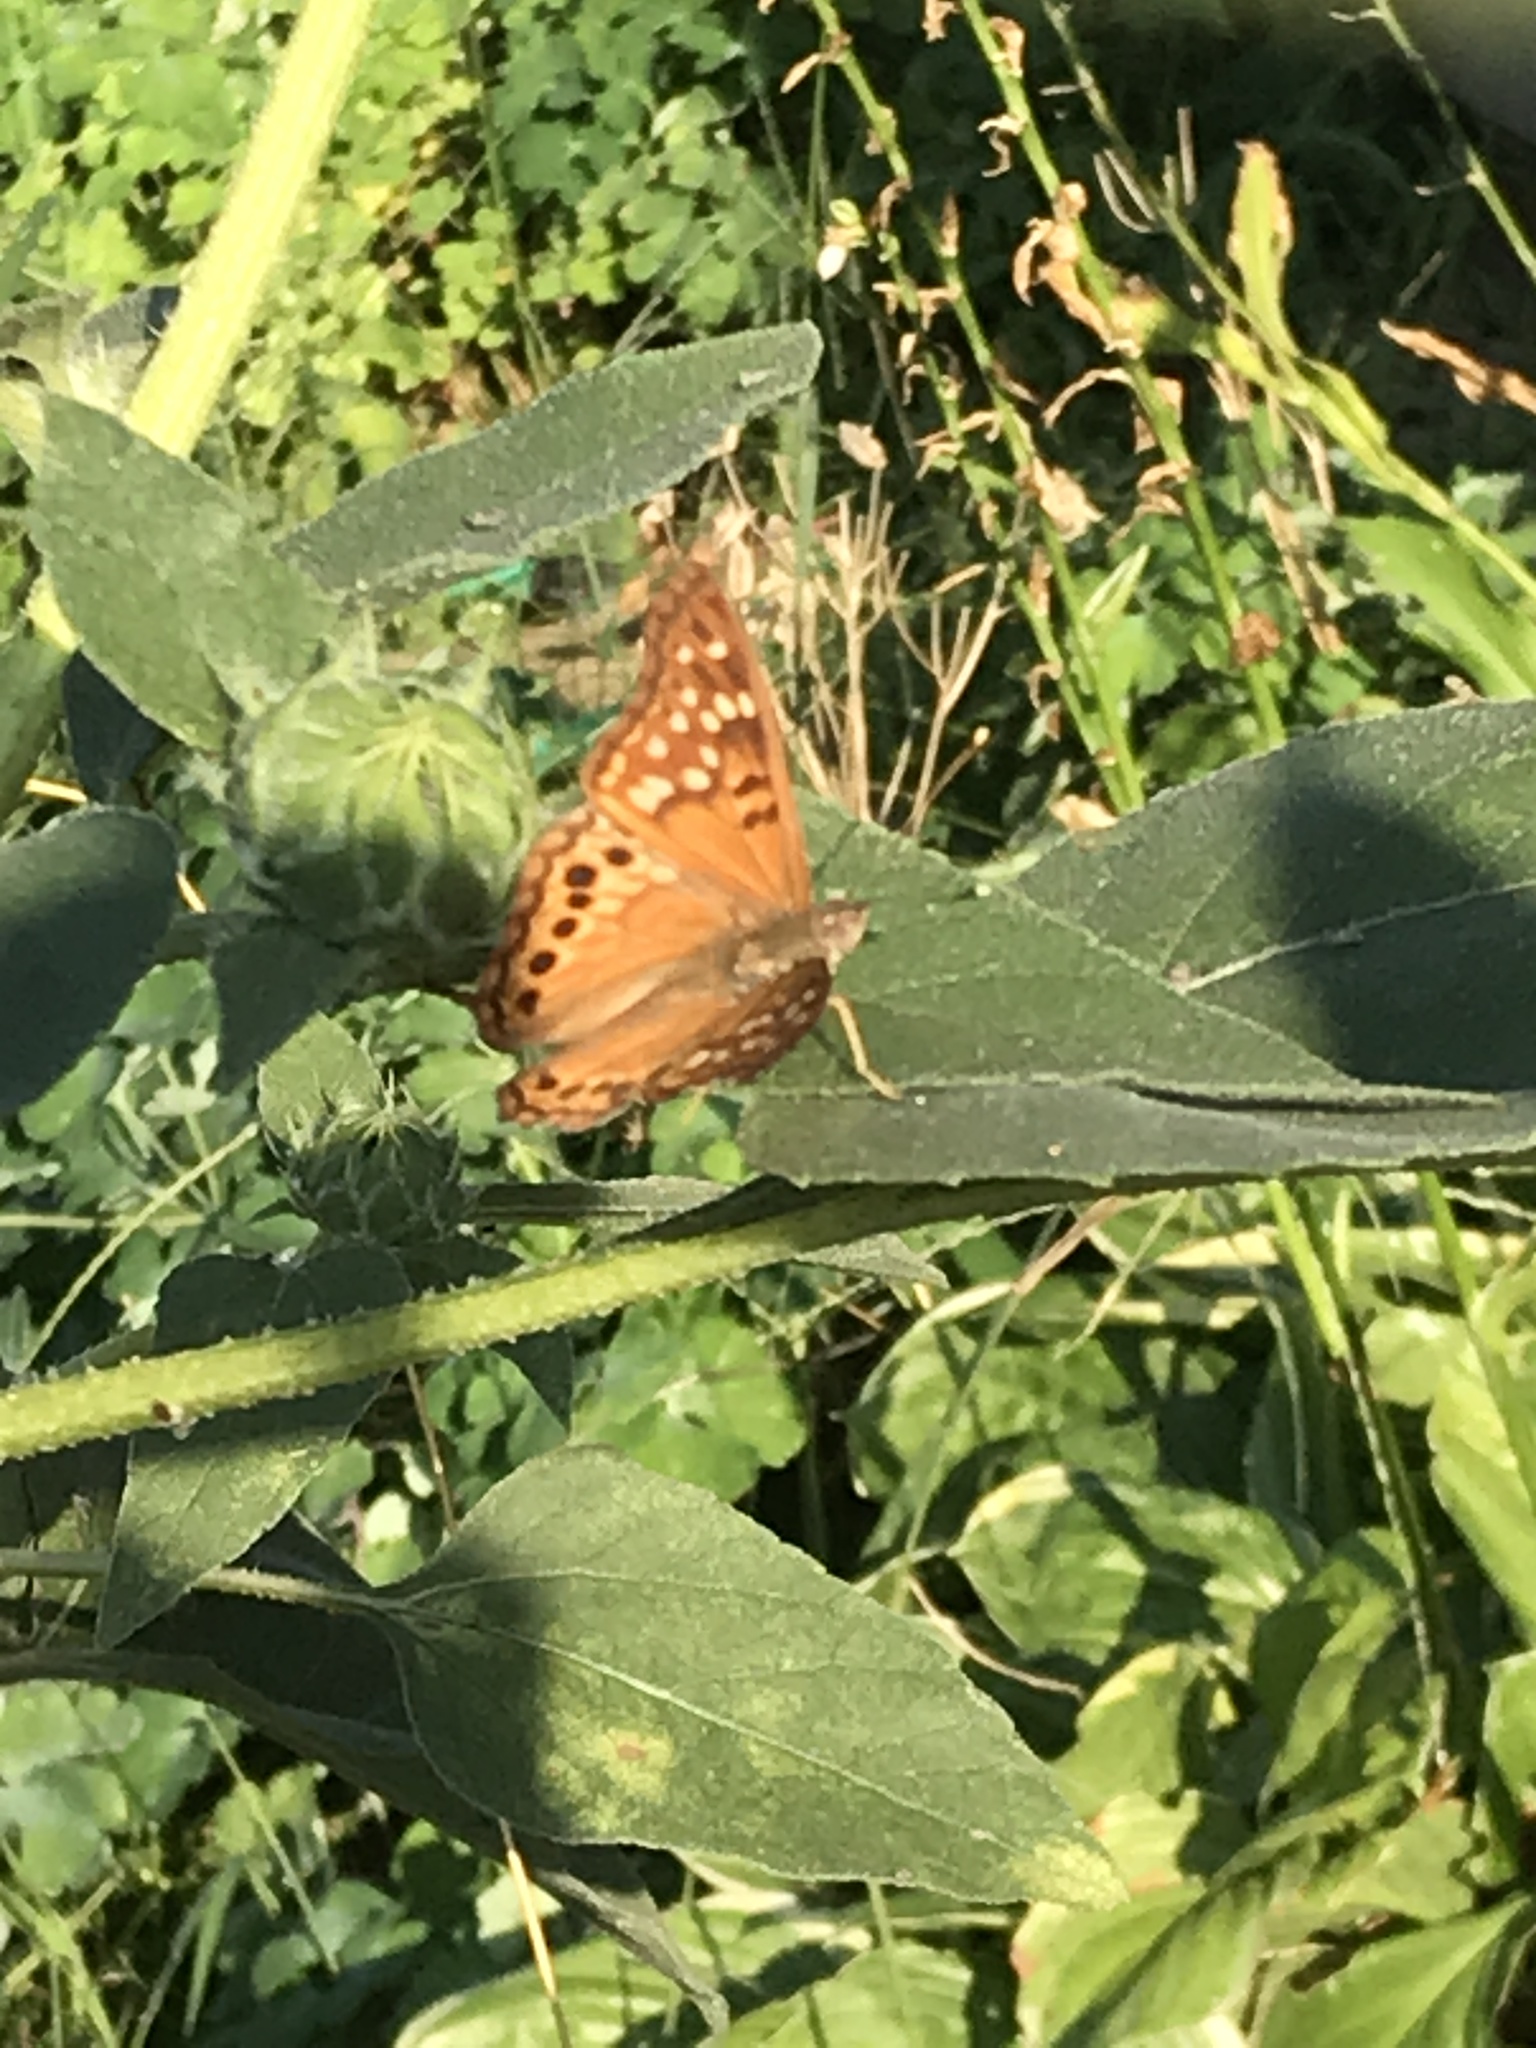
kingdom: Animalia
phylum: Arthropoda
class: Insecta
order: Lepidoptera
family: Nymphalidae
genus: Asterocampa
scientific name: Asterocampa clyton
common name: Tawny emperor
